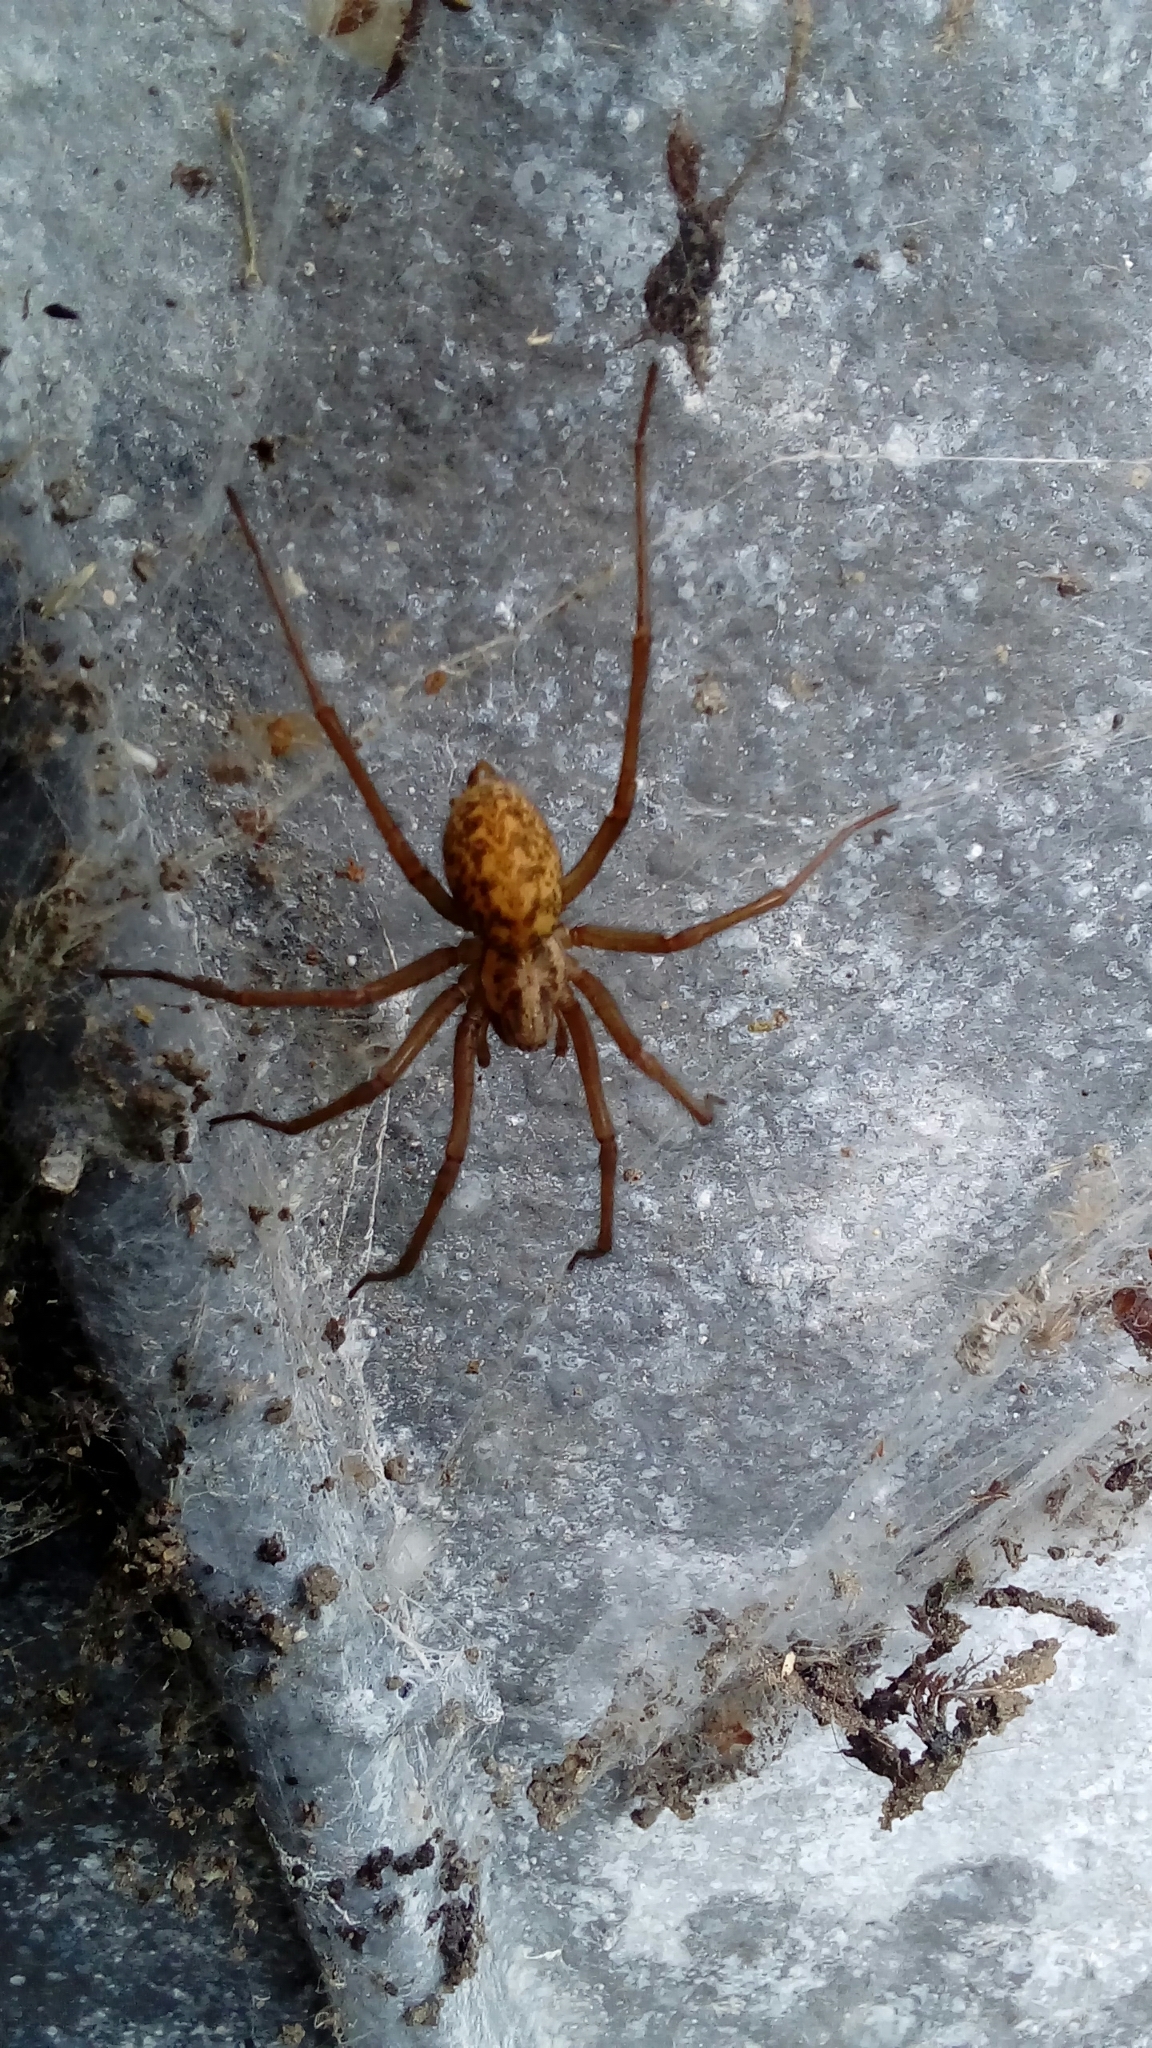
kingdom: Animalia
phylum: Arthropoda
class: Arachnida
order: Araneae
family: Agelenidae
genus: Tegenaria
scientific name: Tegenaria domestica
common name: Barn funnel weaver
